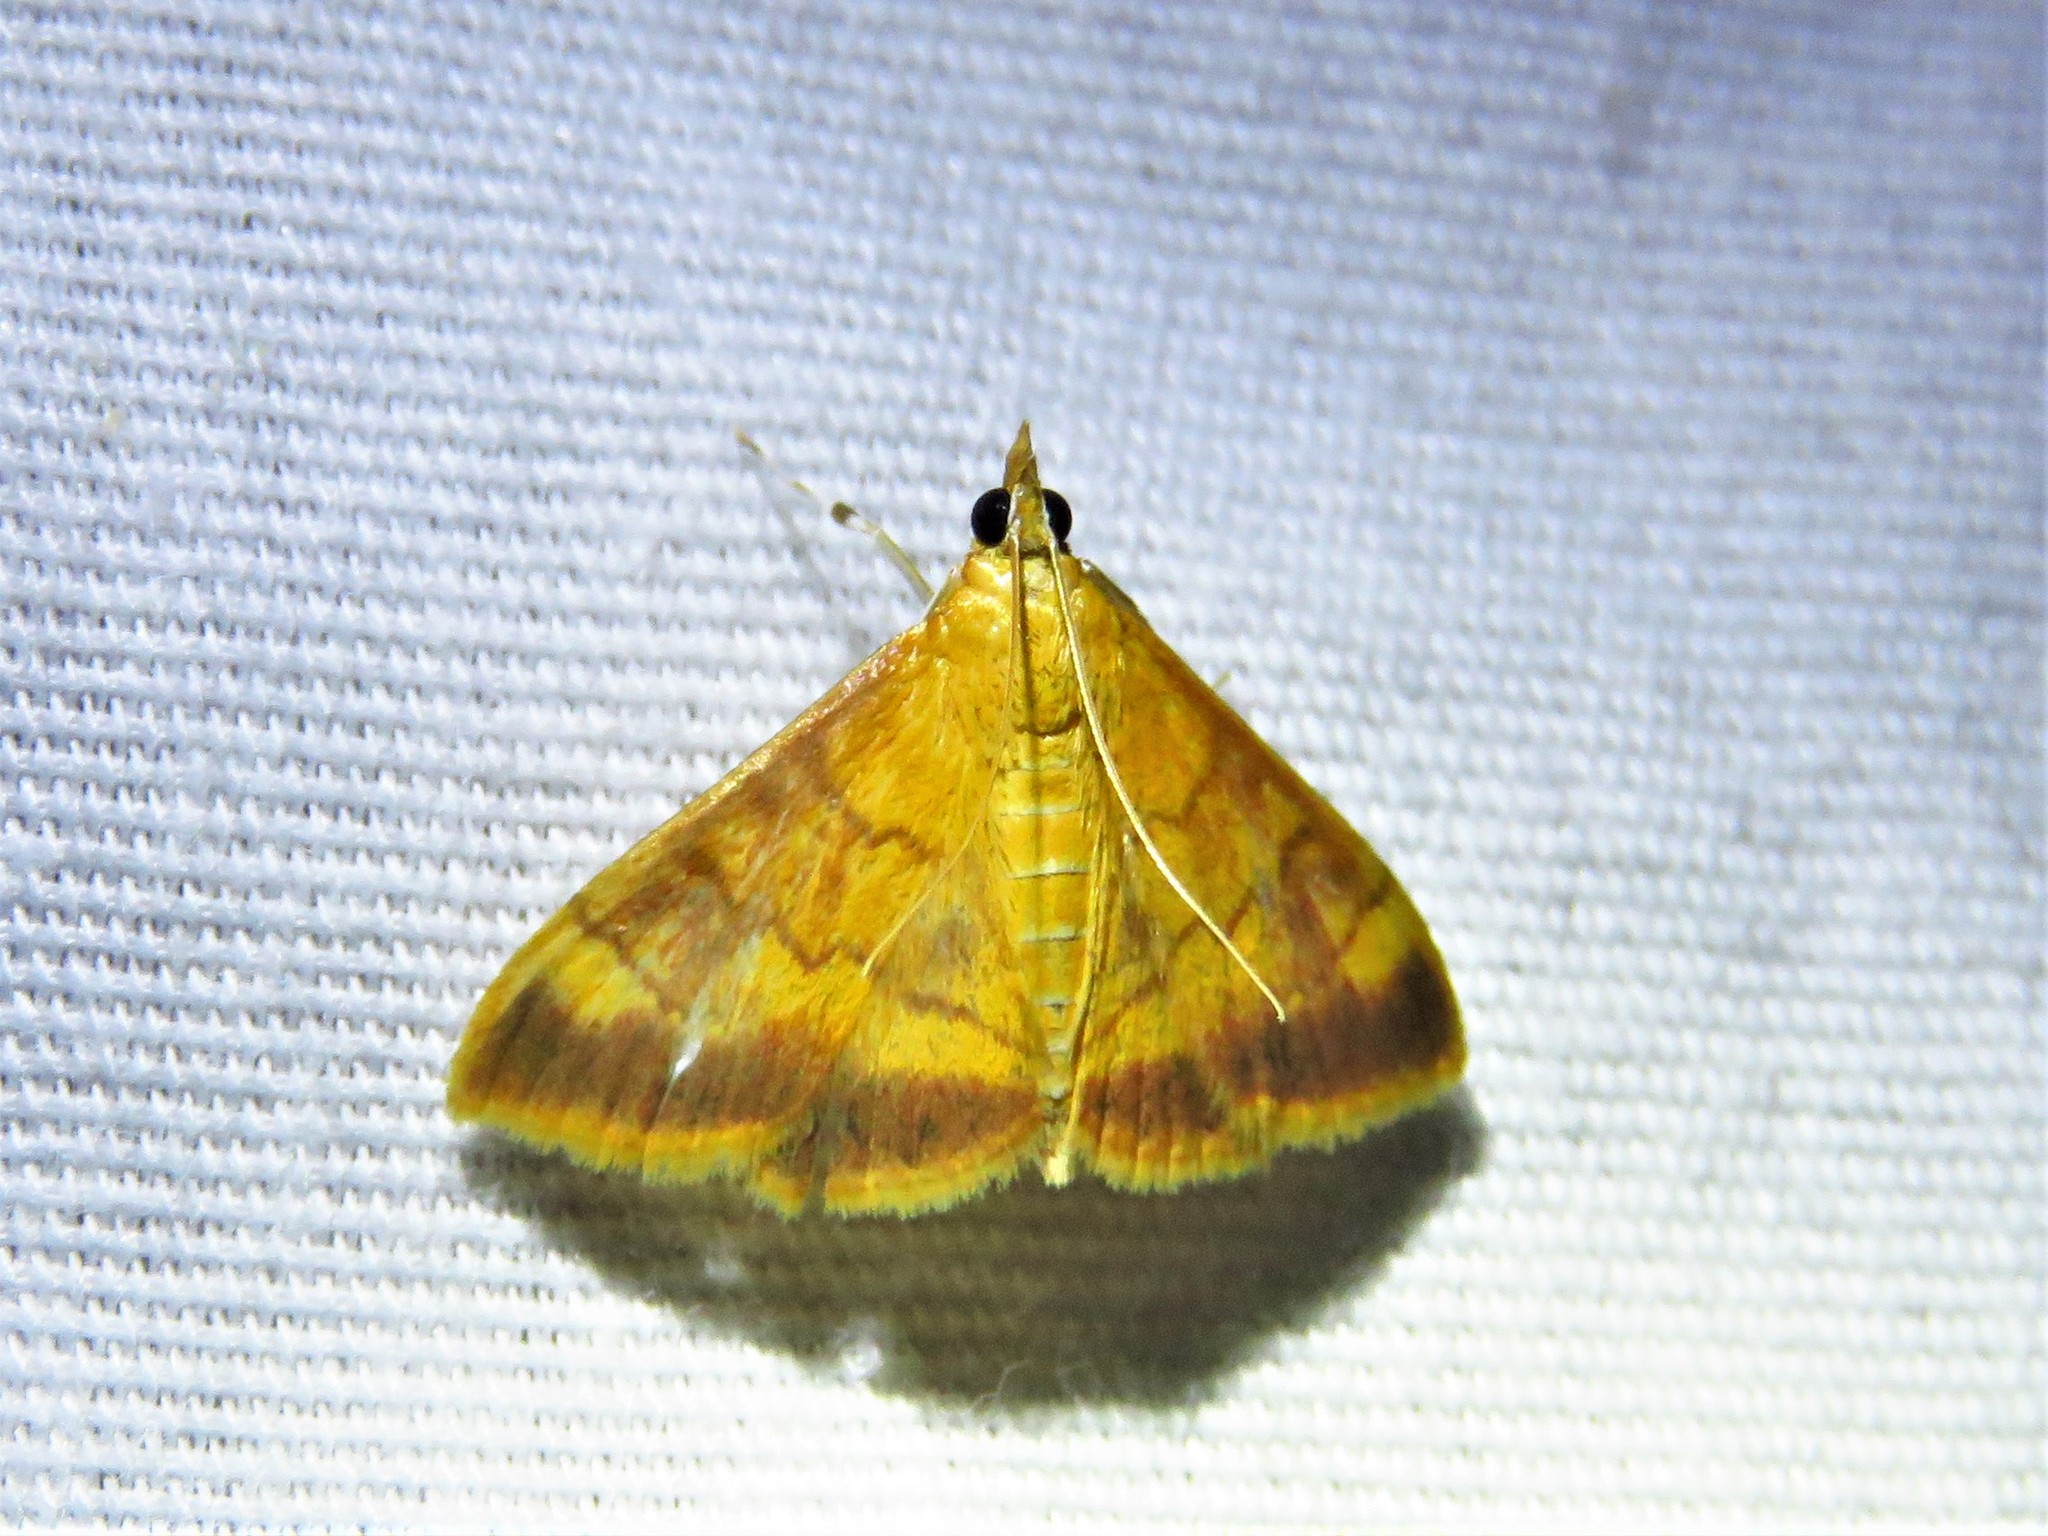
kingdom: Animalia
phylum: Arthropoda
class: Insecta
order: Lepidoptera
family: Crambidae
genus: Pyrausta
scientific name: Pyrausta pseudonythesalis
